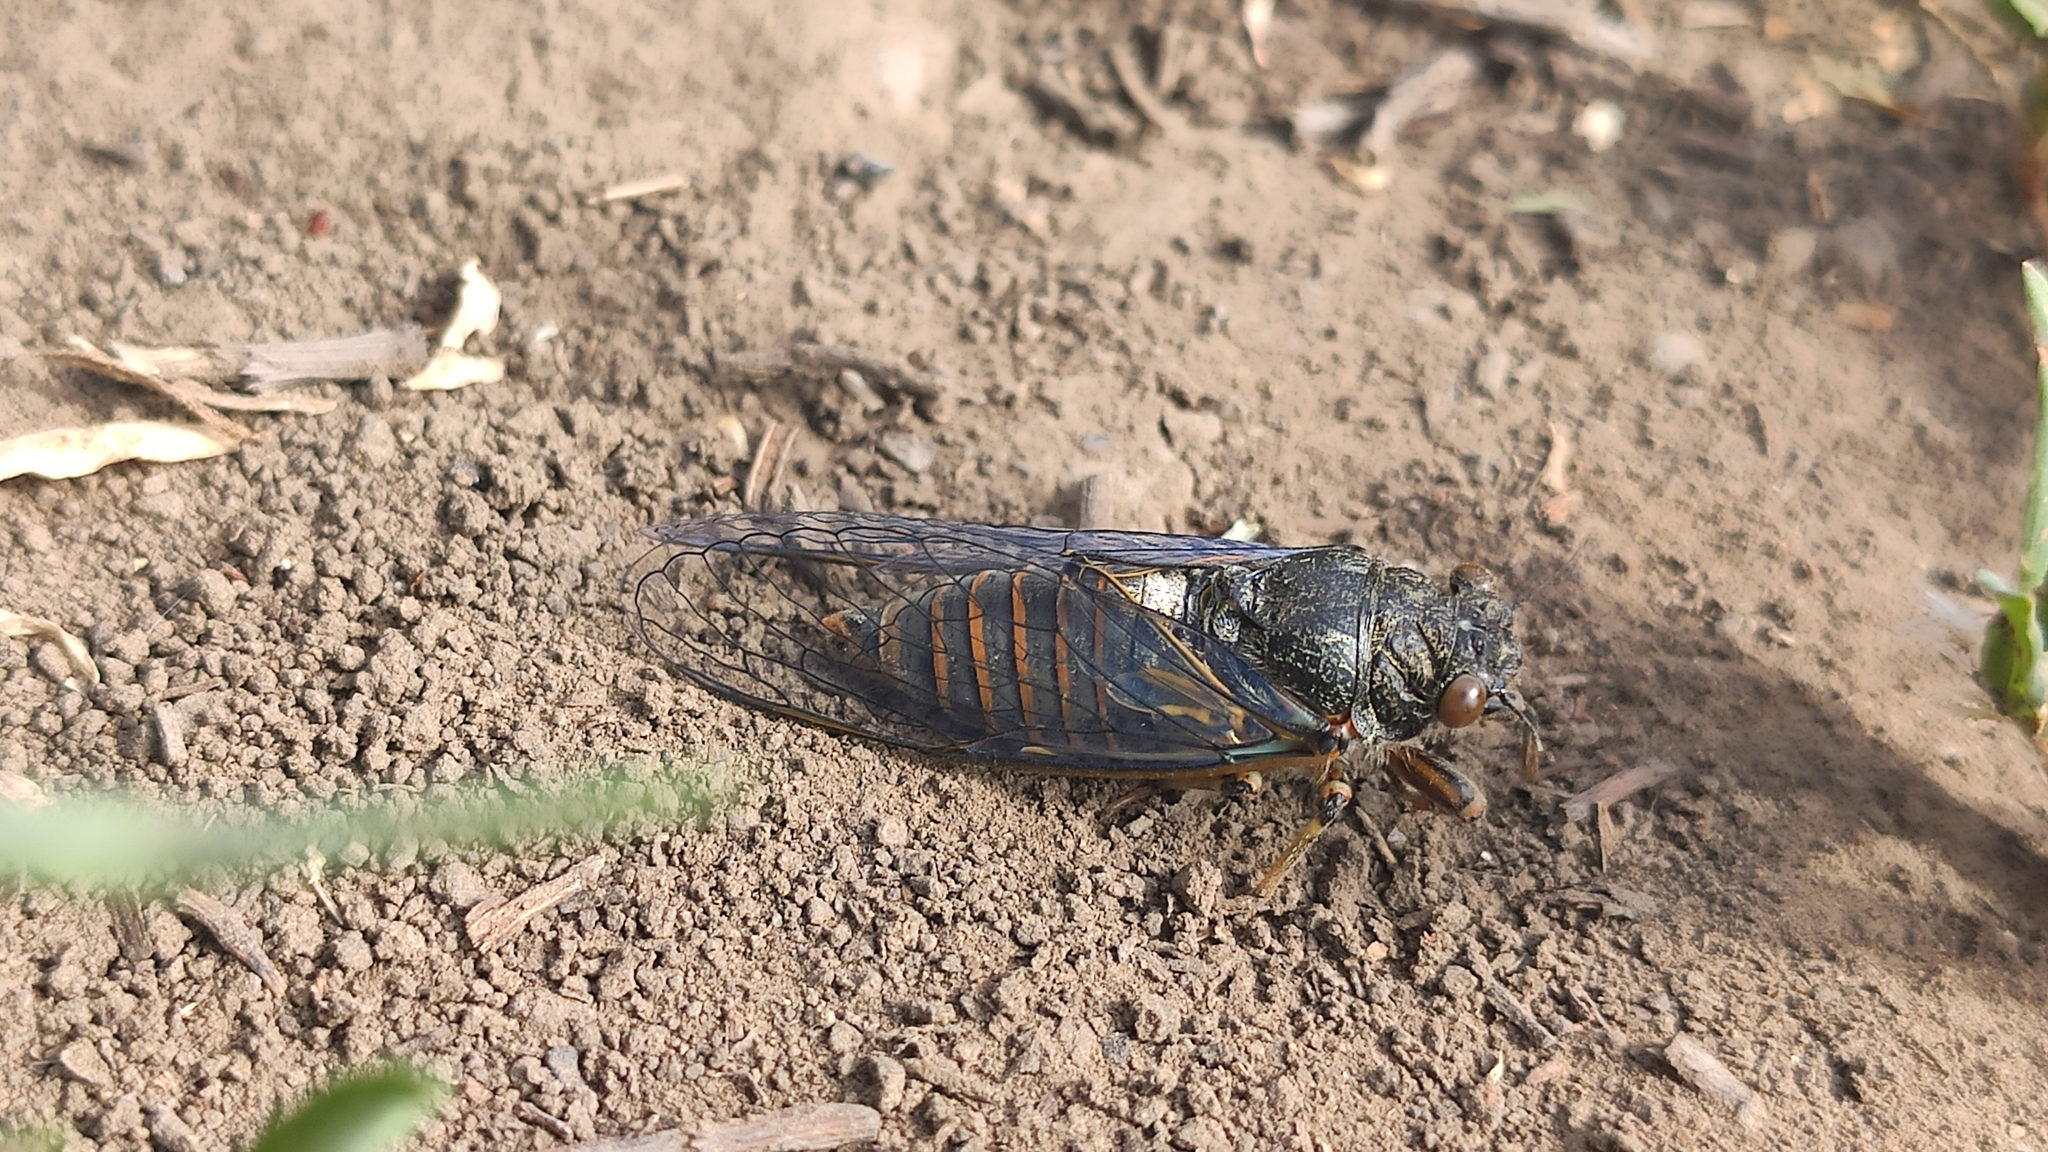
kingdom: Animalia
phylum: Arthropoda
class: Insecta
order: Hemiptera
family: Cicadidae
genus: Cicadetta
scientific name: Cicadetta montana
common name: New forest cicada
